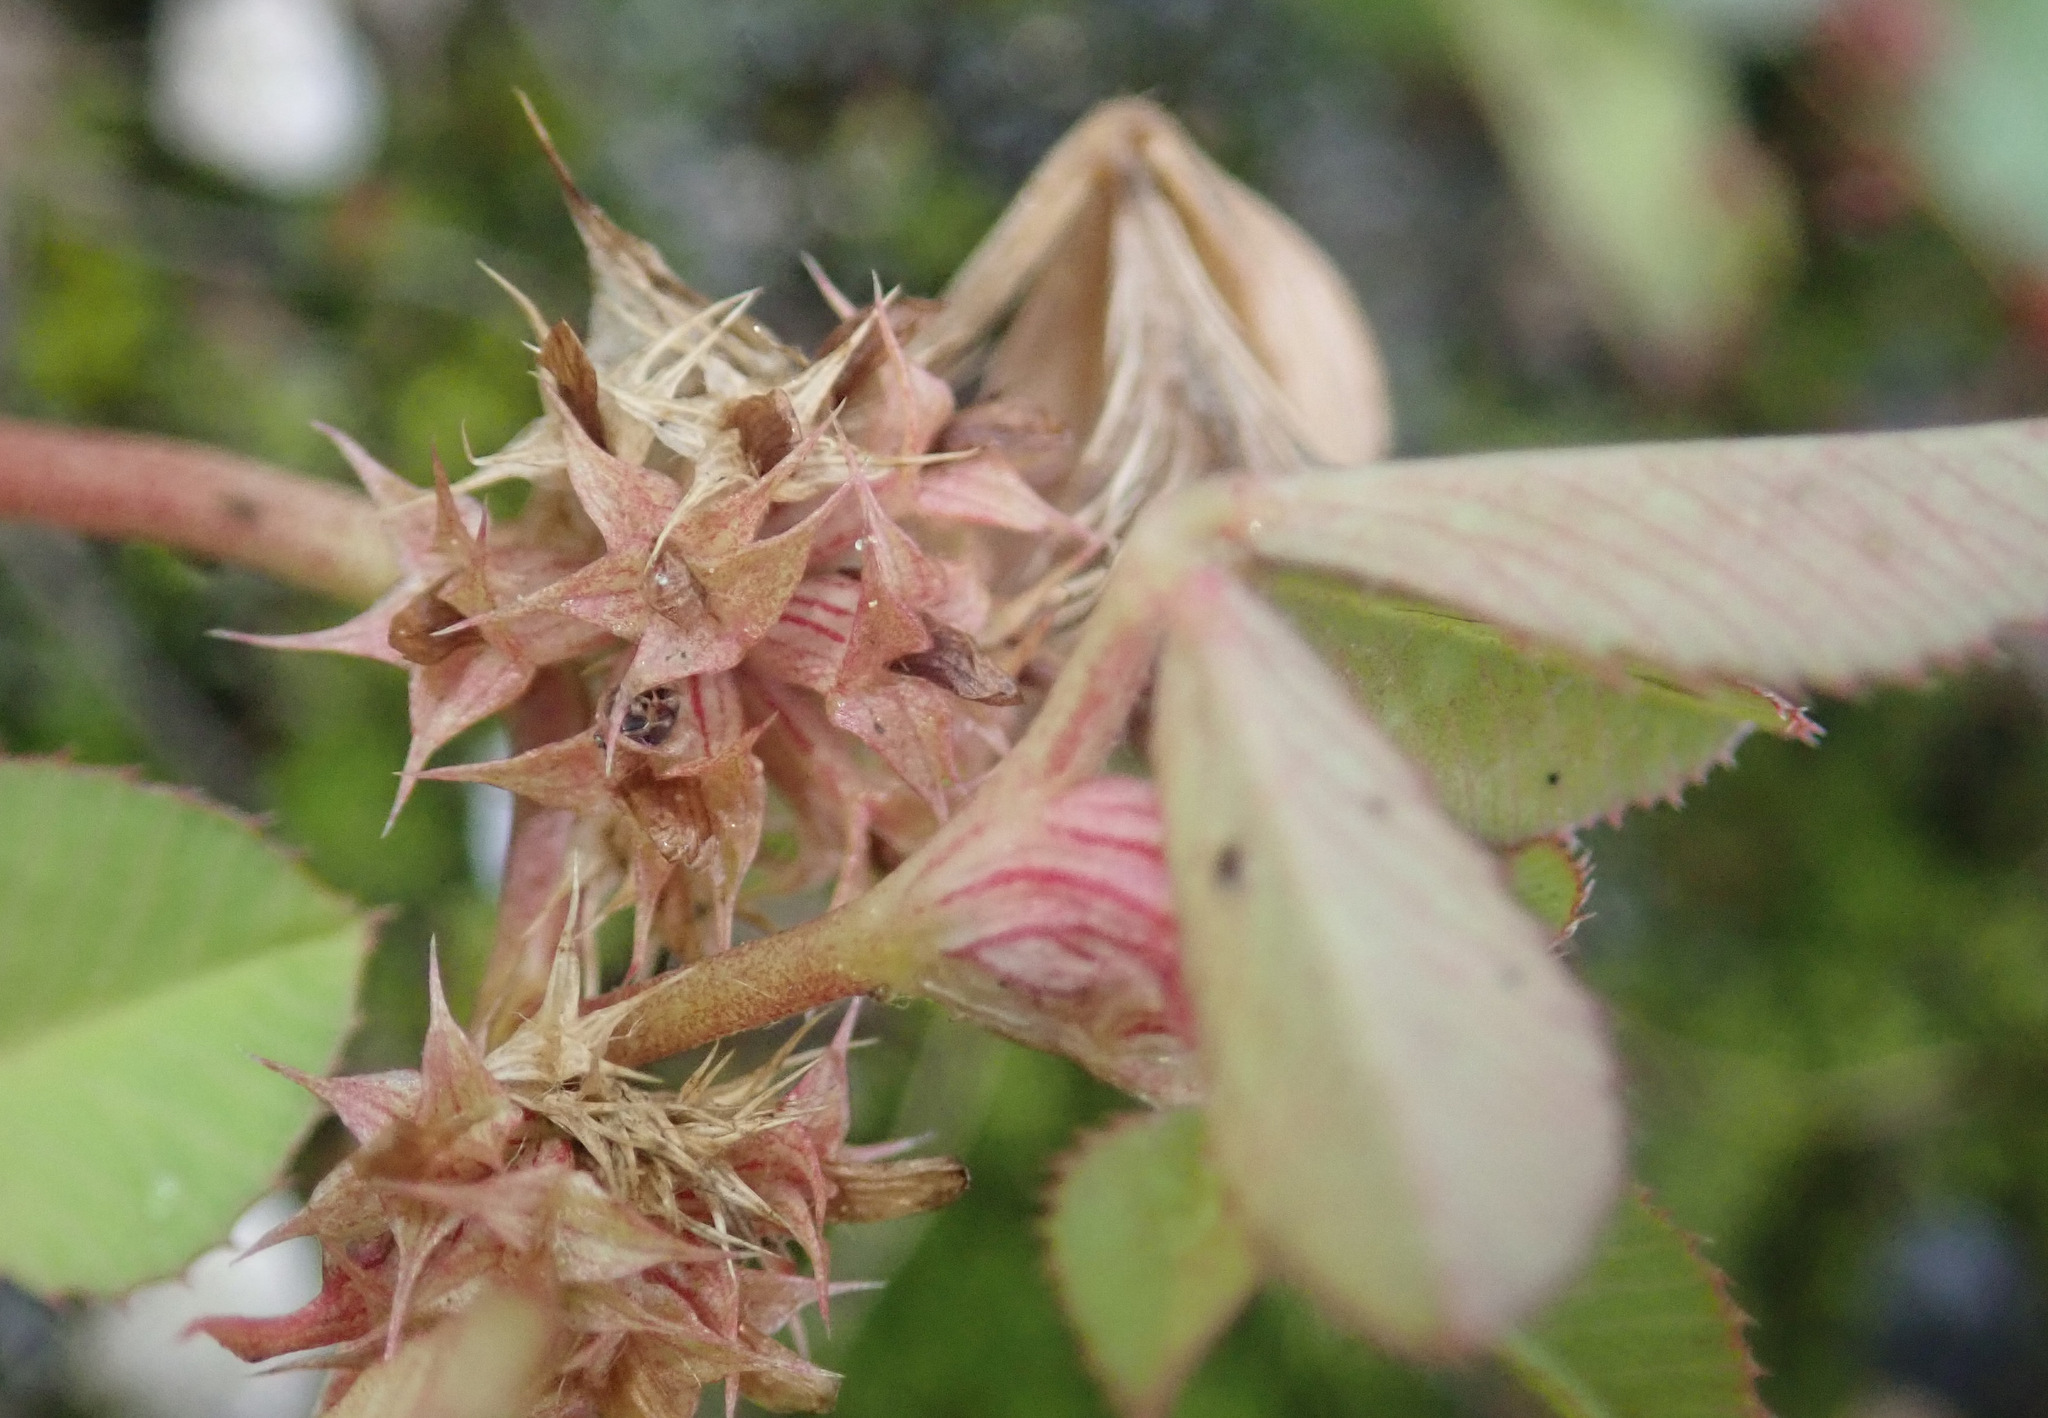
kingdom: Plantae
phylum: Tracheophyta
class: Magnoliopsida
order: Fabales
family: Fabaceae
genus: Trifolium
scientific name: Trifolium glomeratum
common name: Clustered clover
